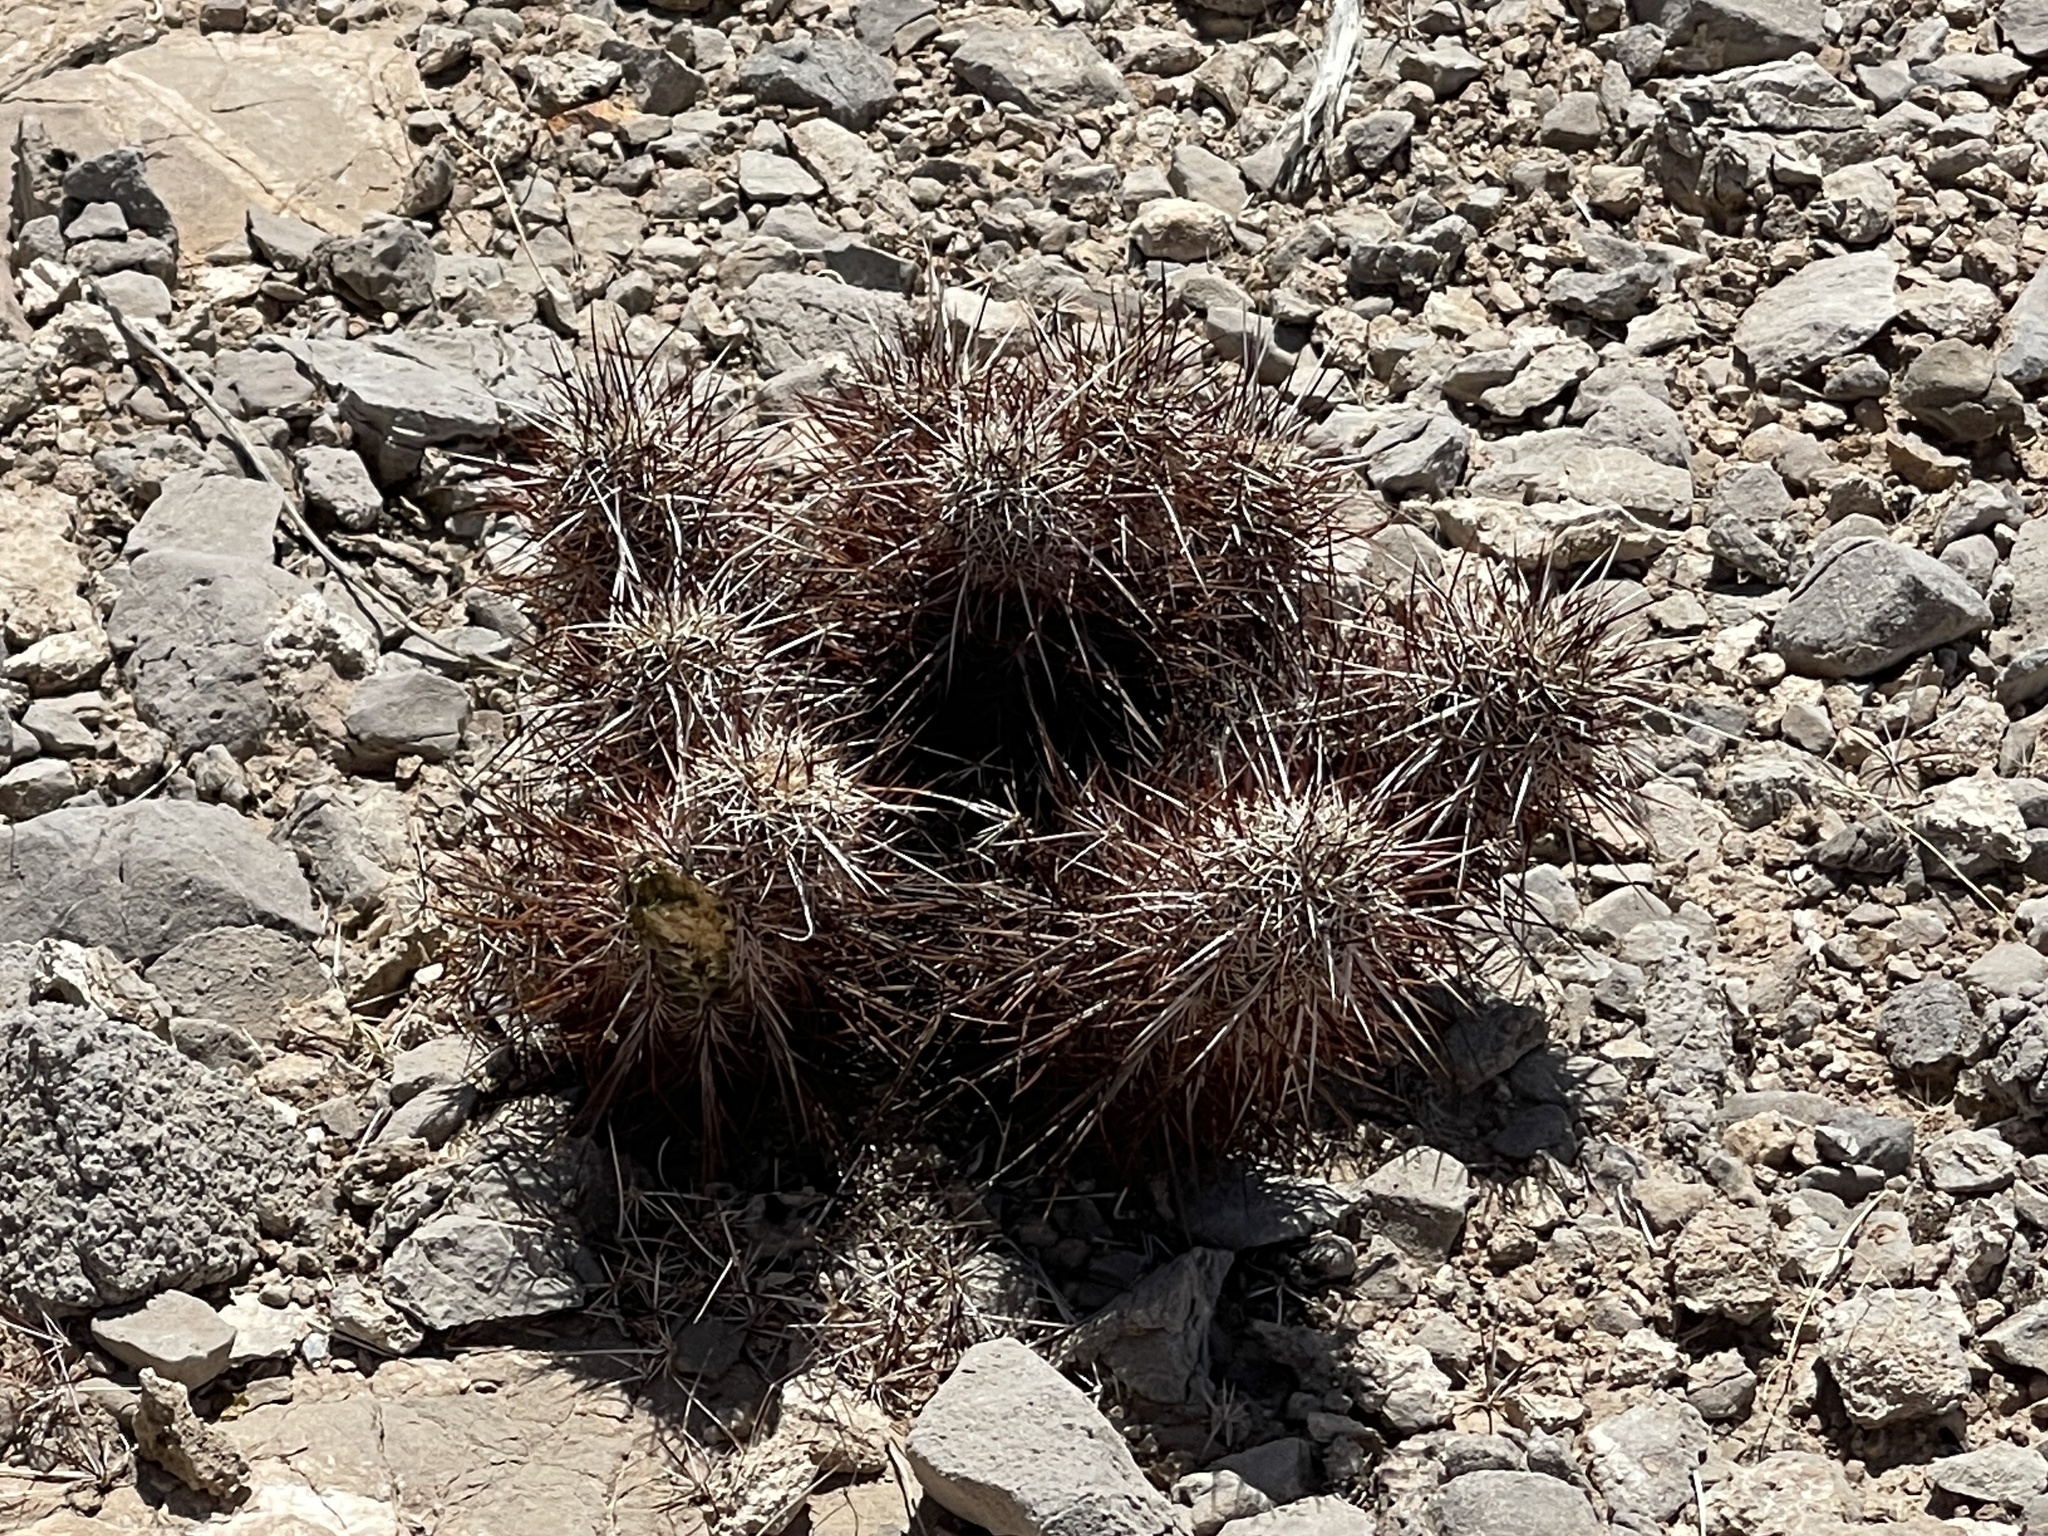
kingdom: Plantae
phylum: Tracheophyta
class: Magnoliopsida
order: Caryophyllales
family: Cactaceae
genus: Echinocereus
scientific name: Echinocereus engelmannii
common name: Engelmann's hedgehog cactus
